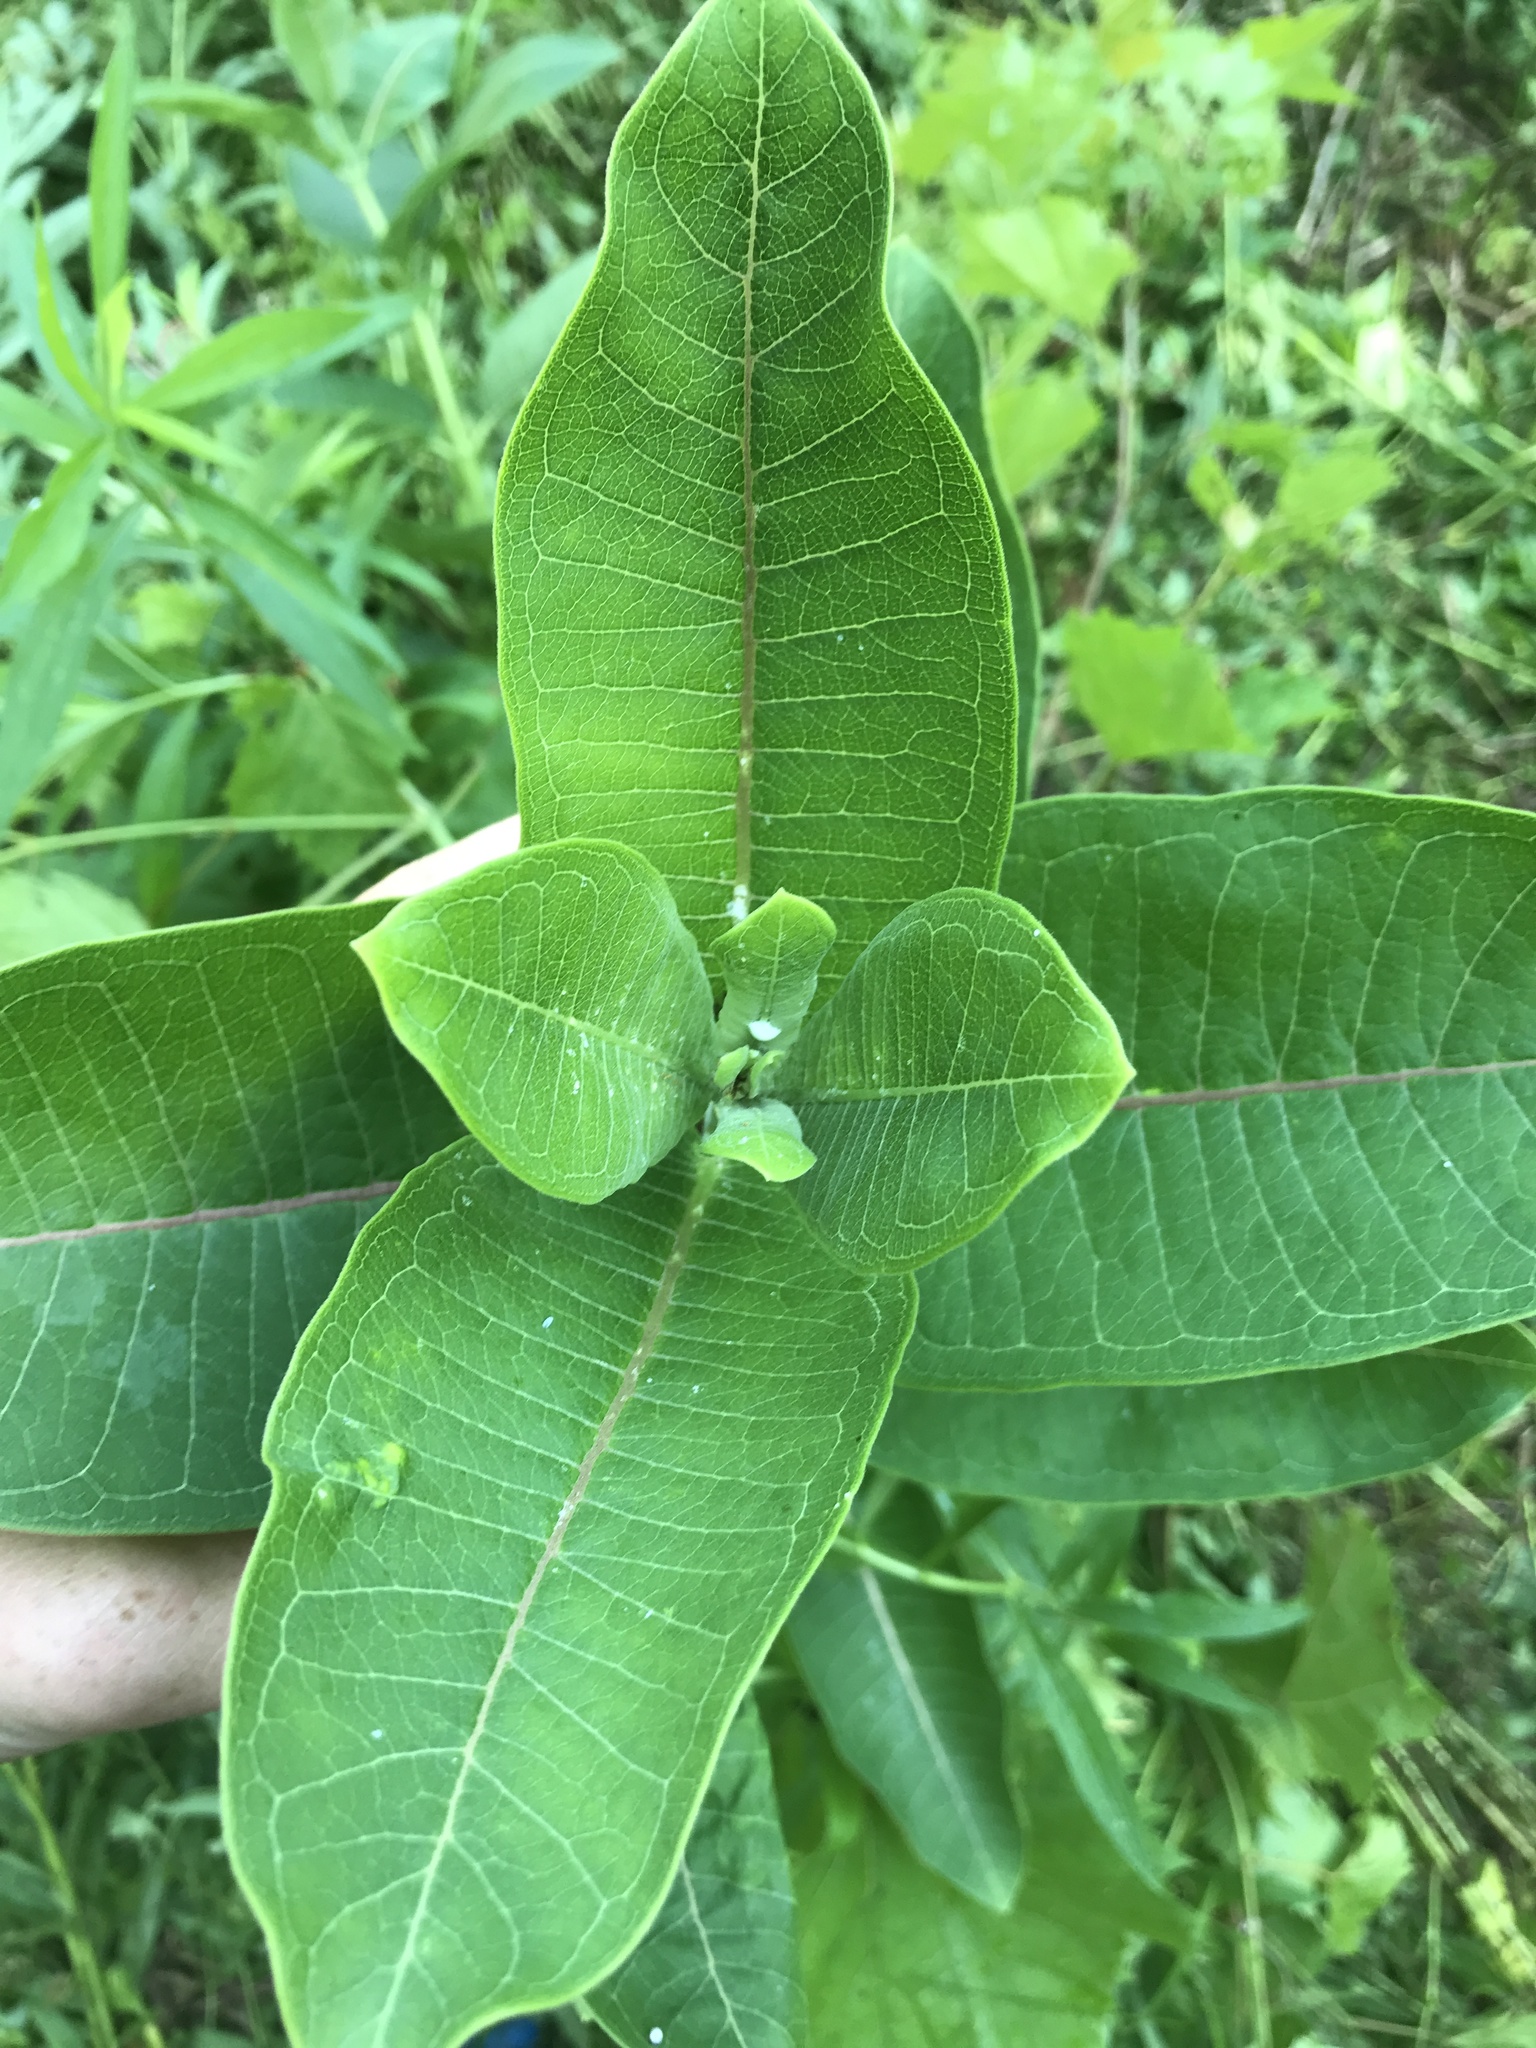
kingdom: Plantae
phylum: Tracheophyta
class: Magnoliopsida
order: Gentianales
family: Apocynaceae
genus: Asclepias
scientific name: Asclepias syriaca
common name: Common milkweed
